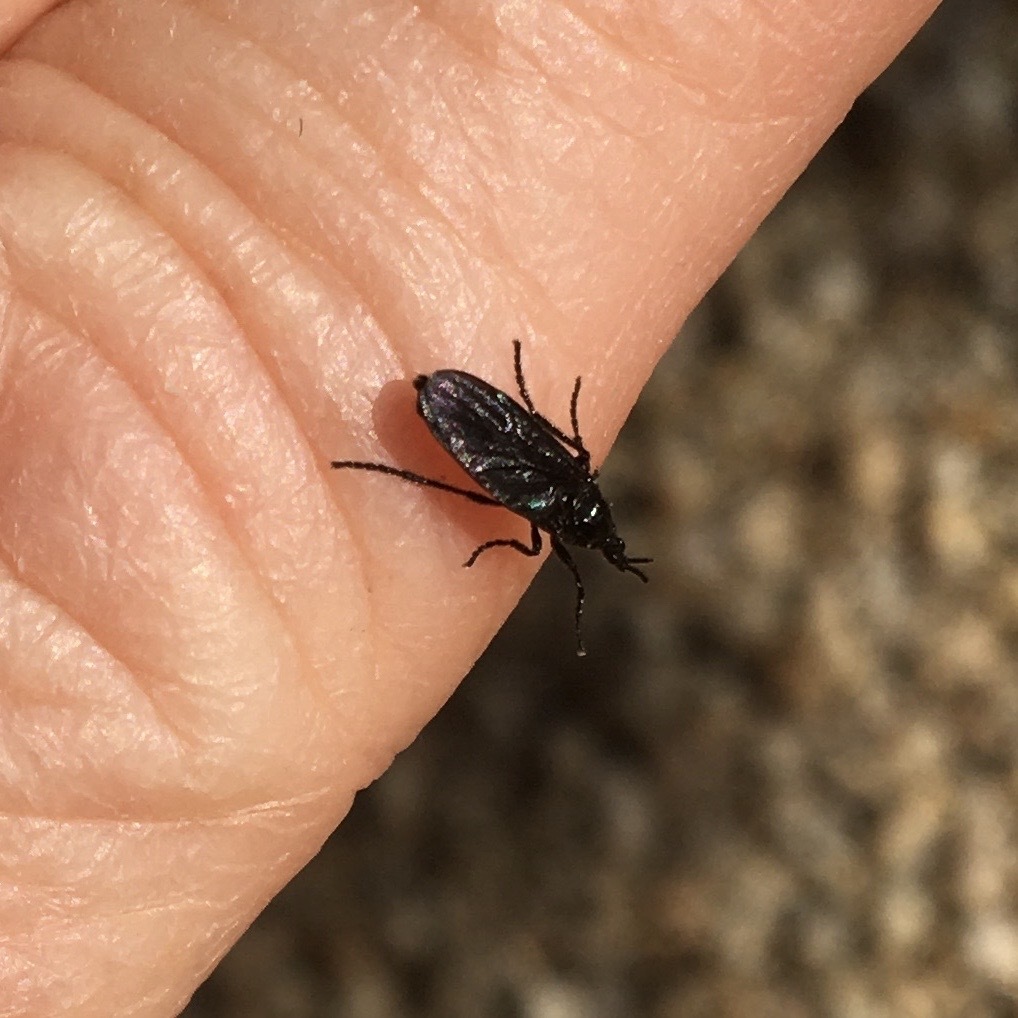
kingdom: Animalia
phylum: Arthropoda
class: Insecta
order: Diptera
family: Bibionidae
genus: Dilophus
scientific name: Dilophus orbatus
